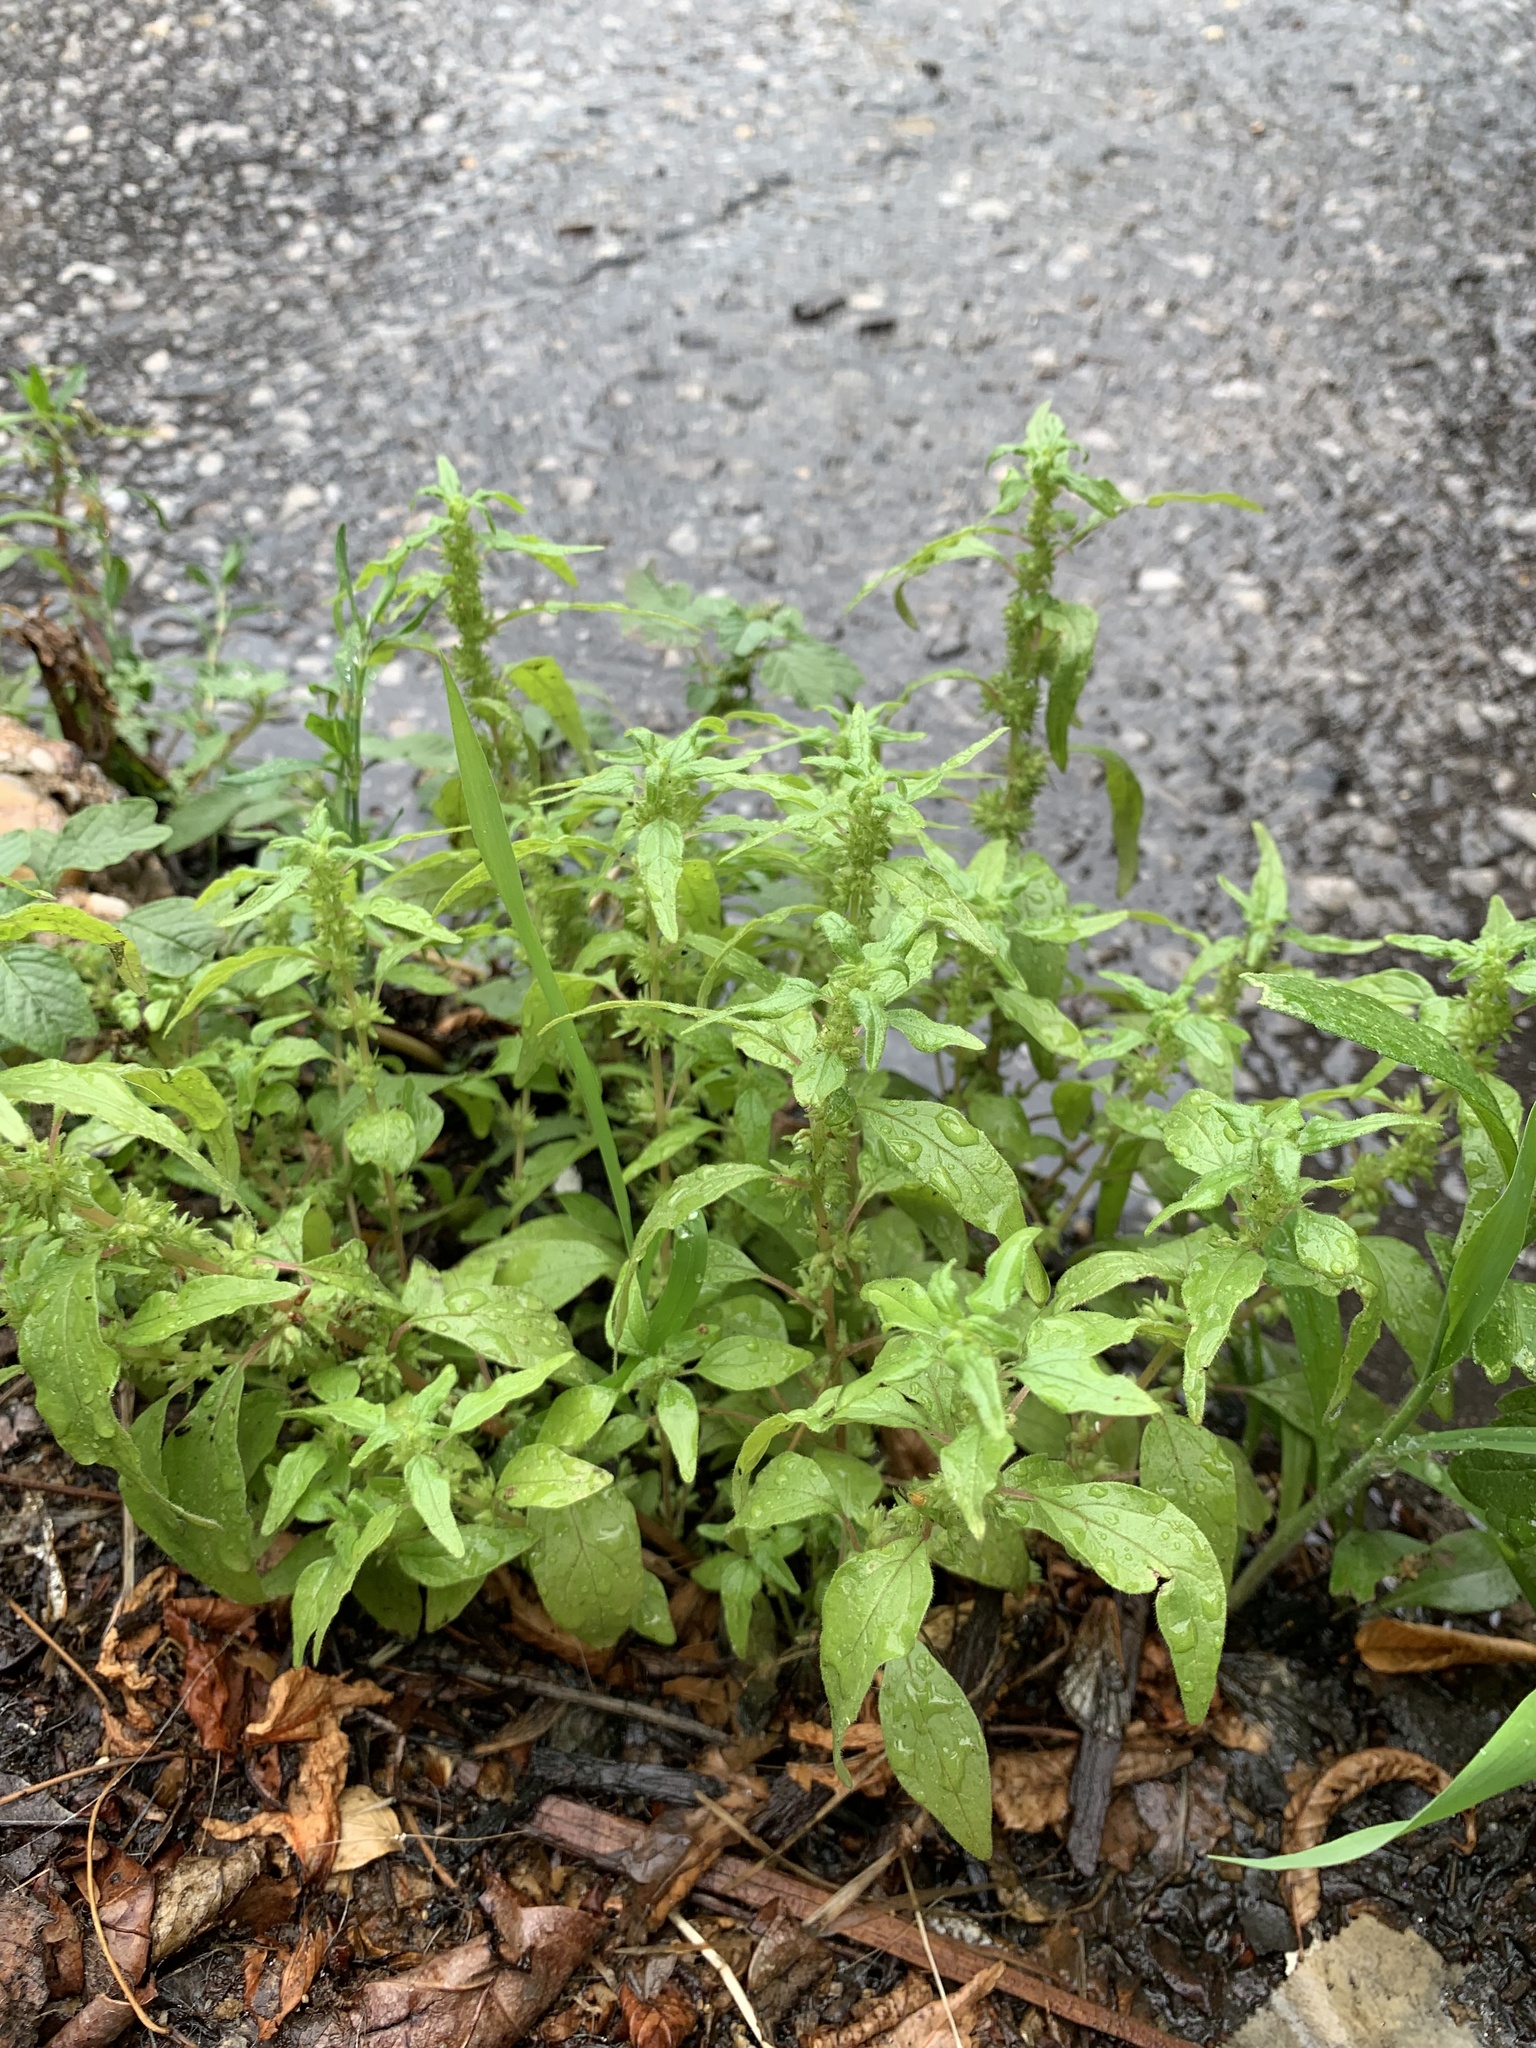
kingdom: Plantae
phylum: Tracheophyta
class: Magnoliopsida
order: Rosales
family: Urticaceae
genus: Parietaria
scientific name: Parietaria pensylvanica
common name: Pennsylvania pellitory
